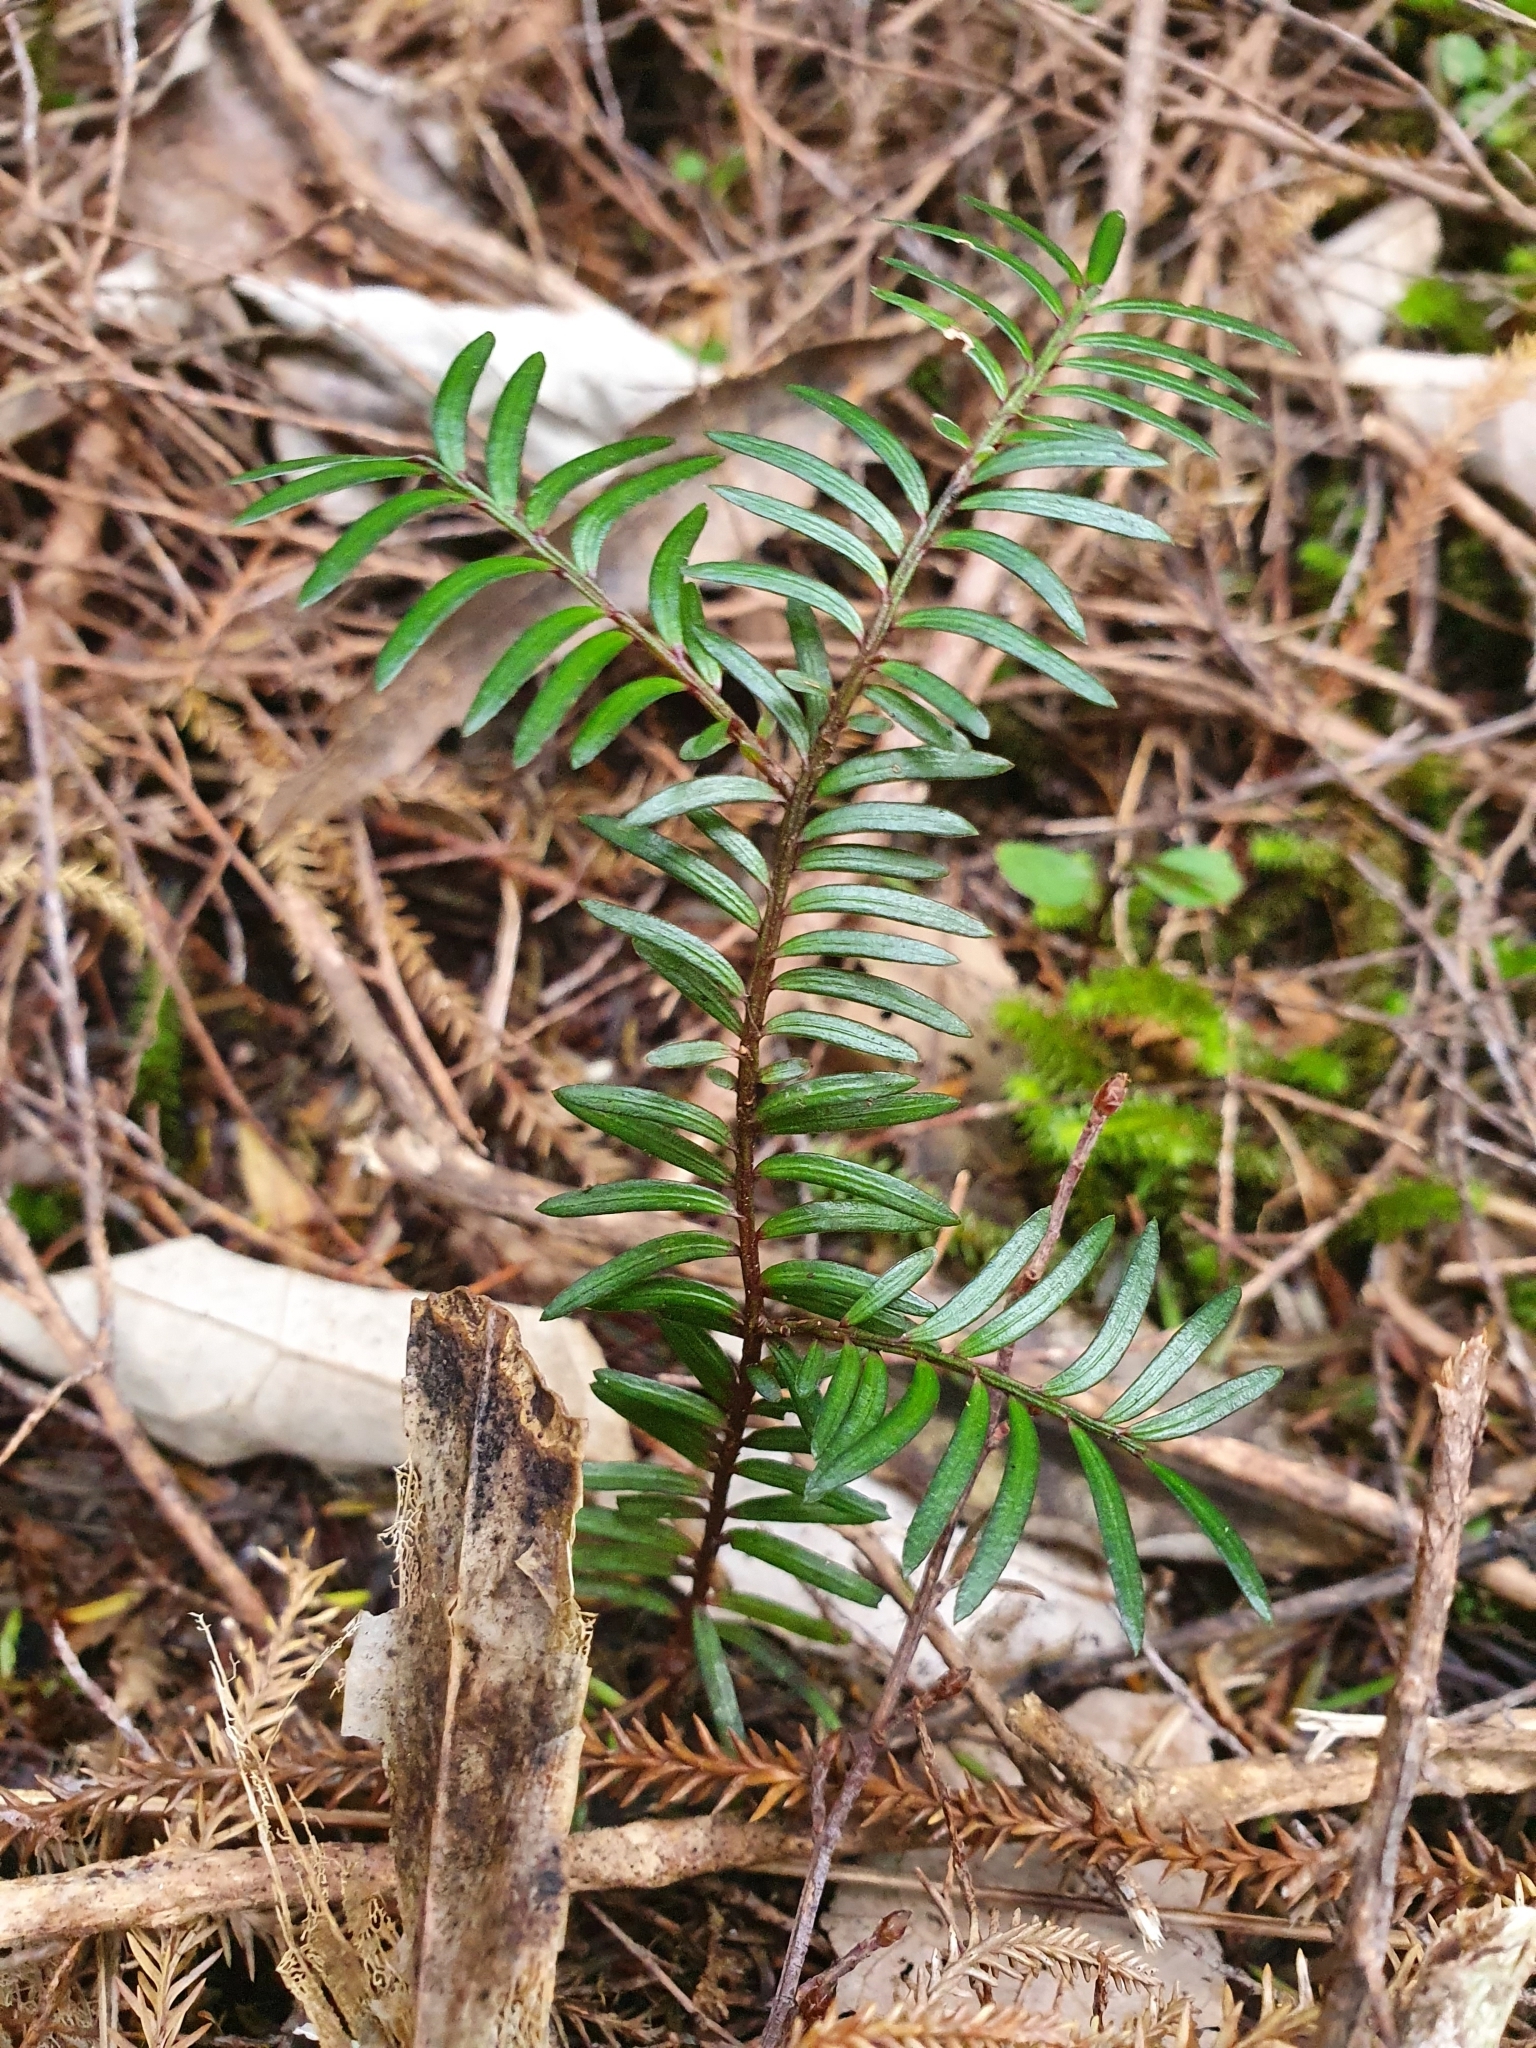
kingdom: Plantae
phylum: Tracheophyta
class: Pinopsida
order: Pinales
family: Podocarpaceae
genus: Prumnopitys
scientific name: Prumnopitys ferruginea
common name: Brown pine
